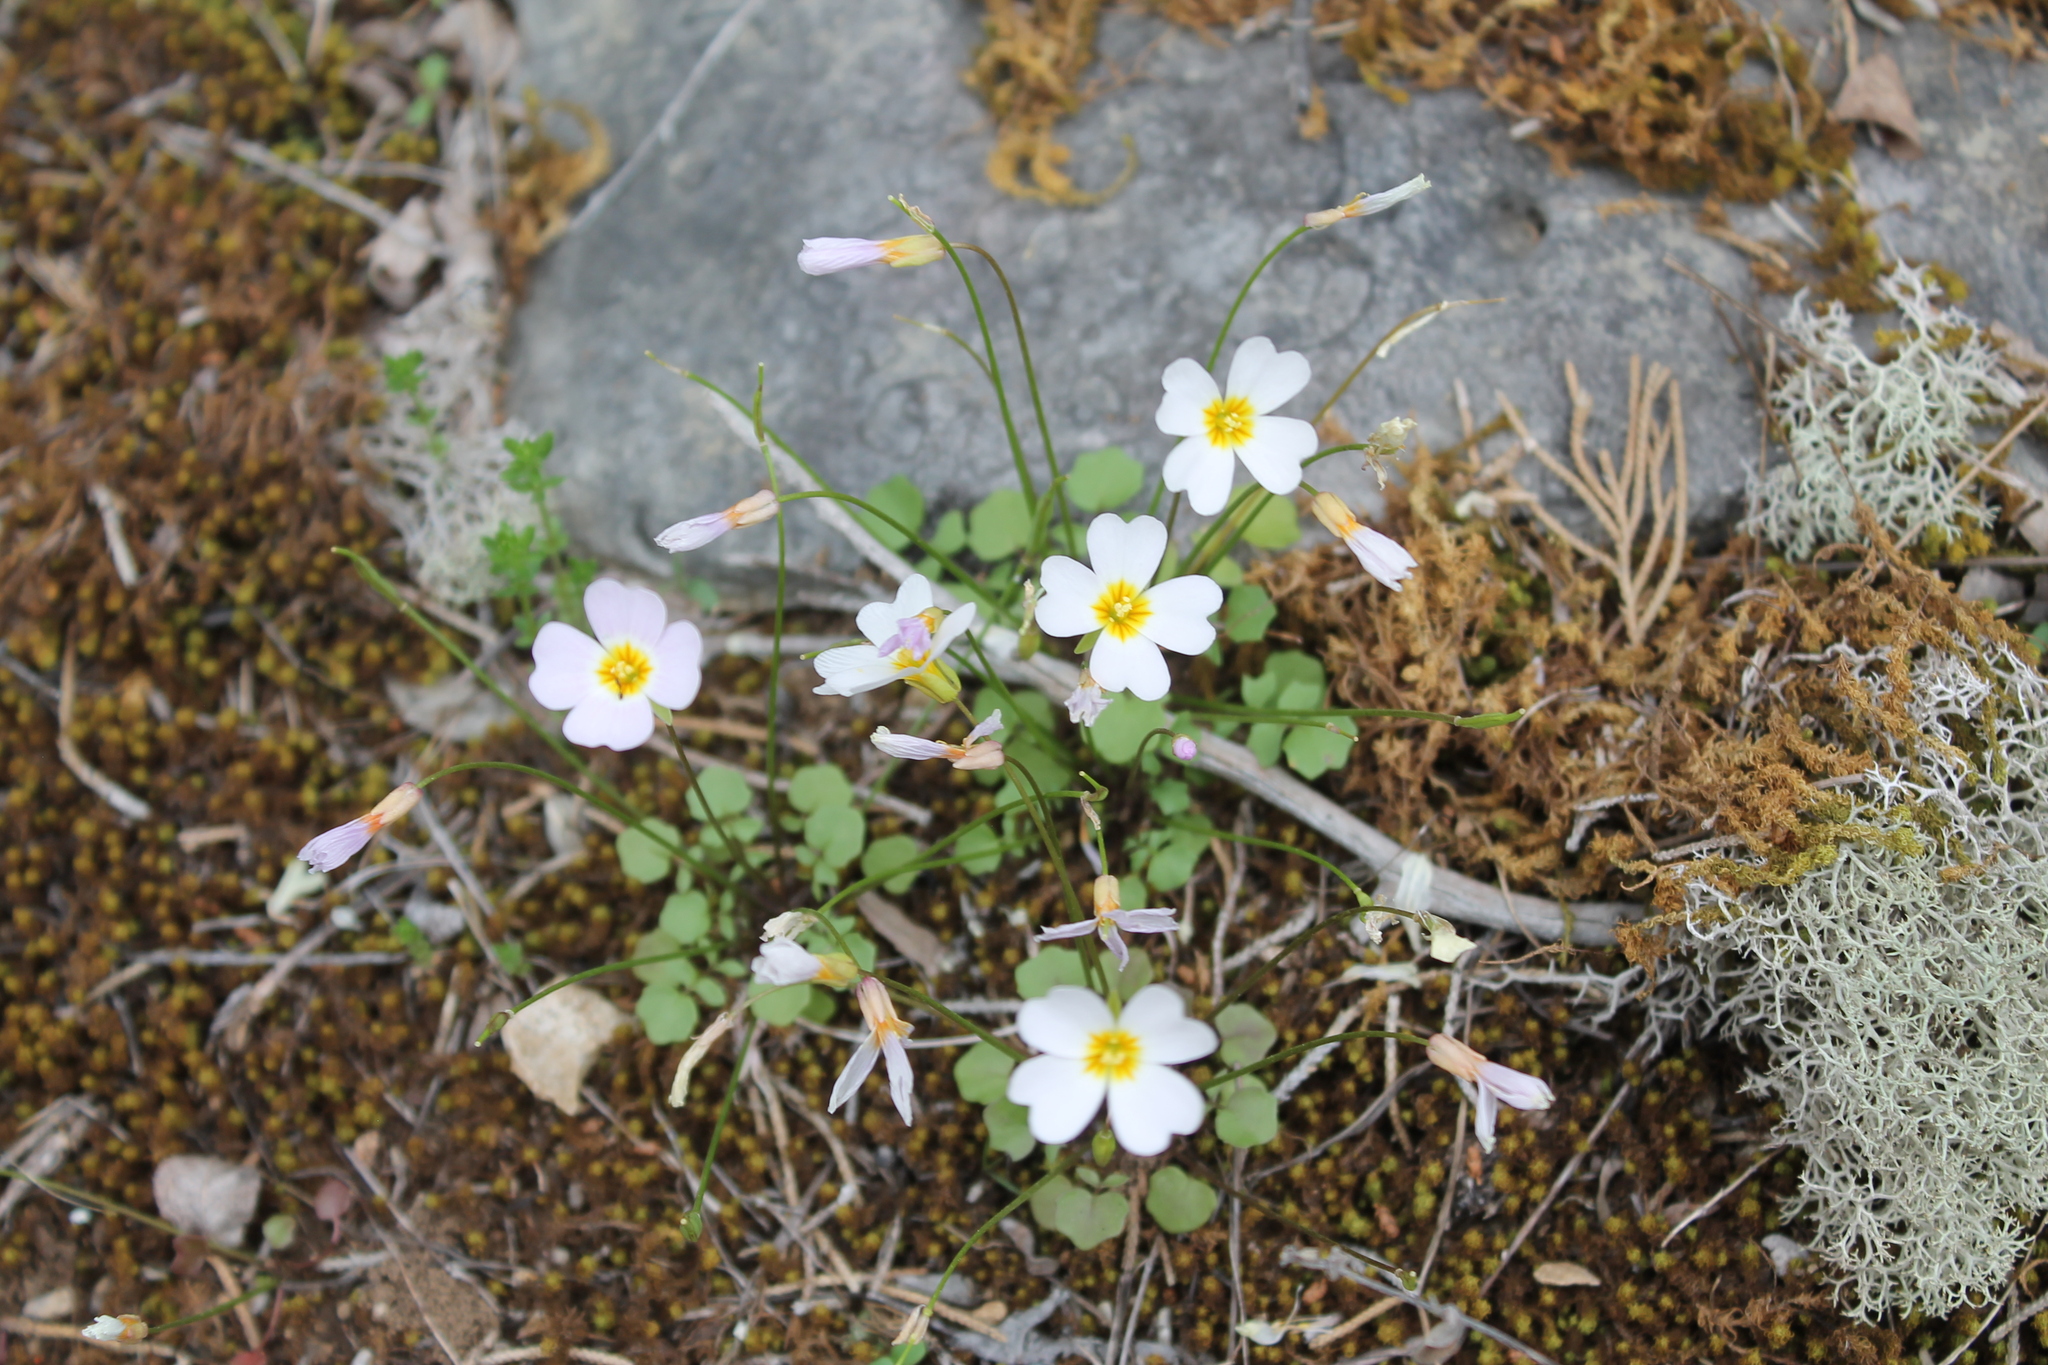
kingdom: Plantae
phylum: Tracheophyta
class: Magnoliopsida
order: Brassicales
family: Brassicaceae
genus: Leavenworthia
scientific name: Leavenworthia stylosa
